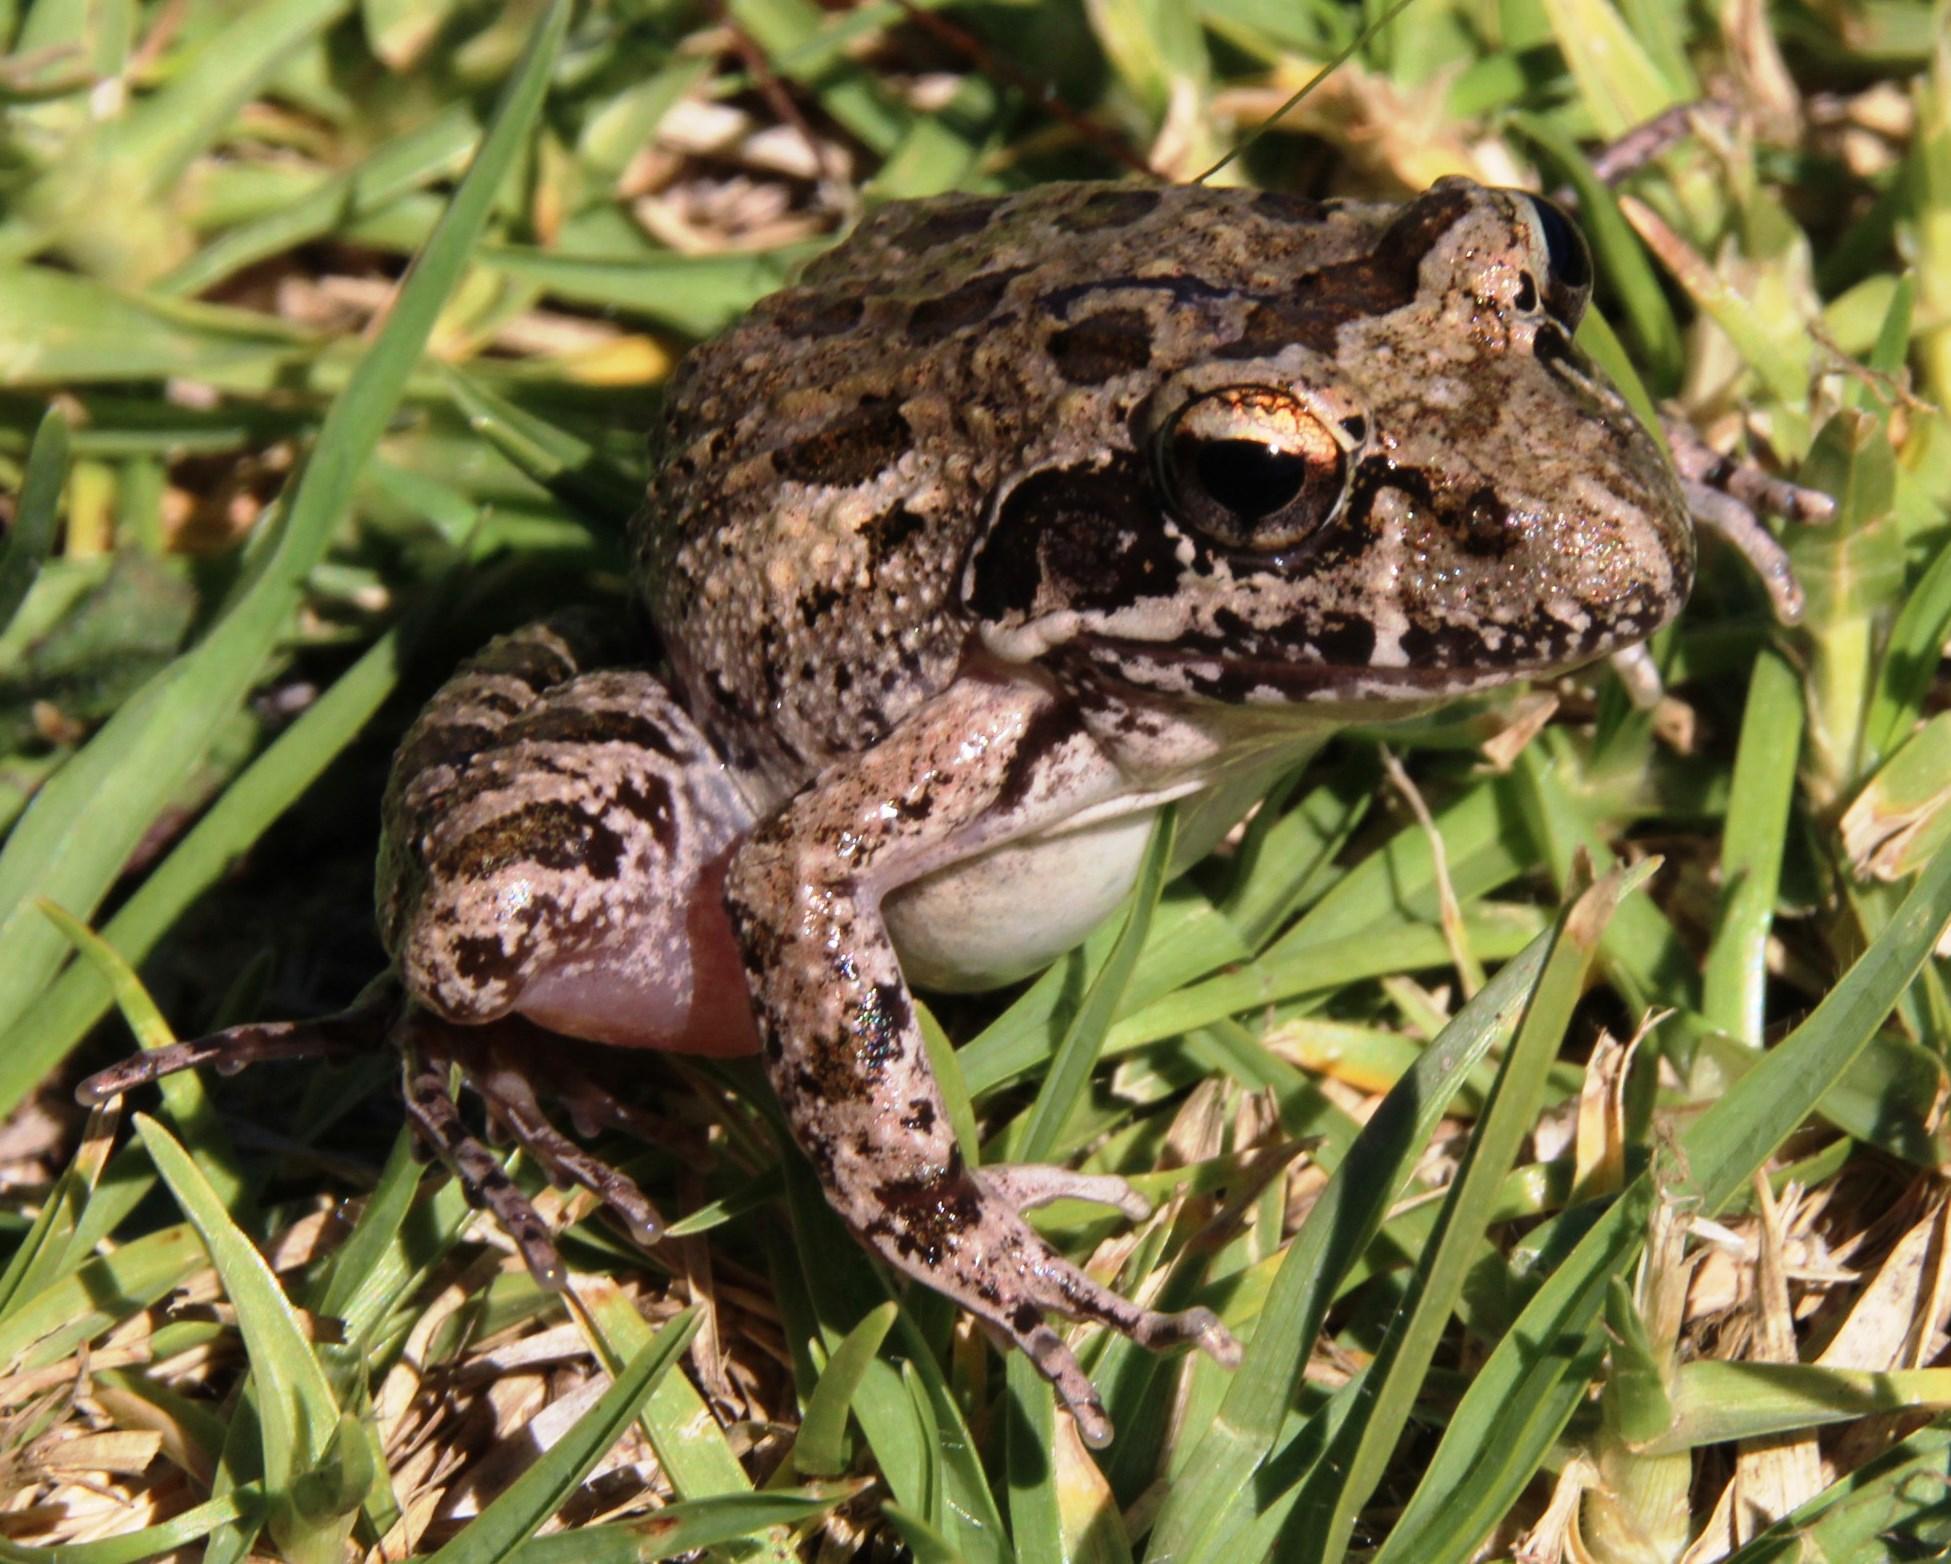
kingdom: Animalia
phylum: Chordata
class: Amphibia
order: Anura
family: Pyxicephalidae
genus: Strongylopus
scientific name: Strongylopus grayii
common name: Gray's stream frog
